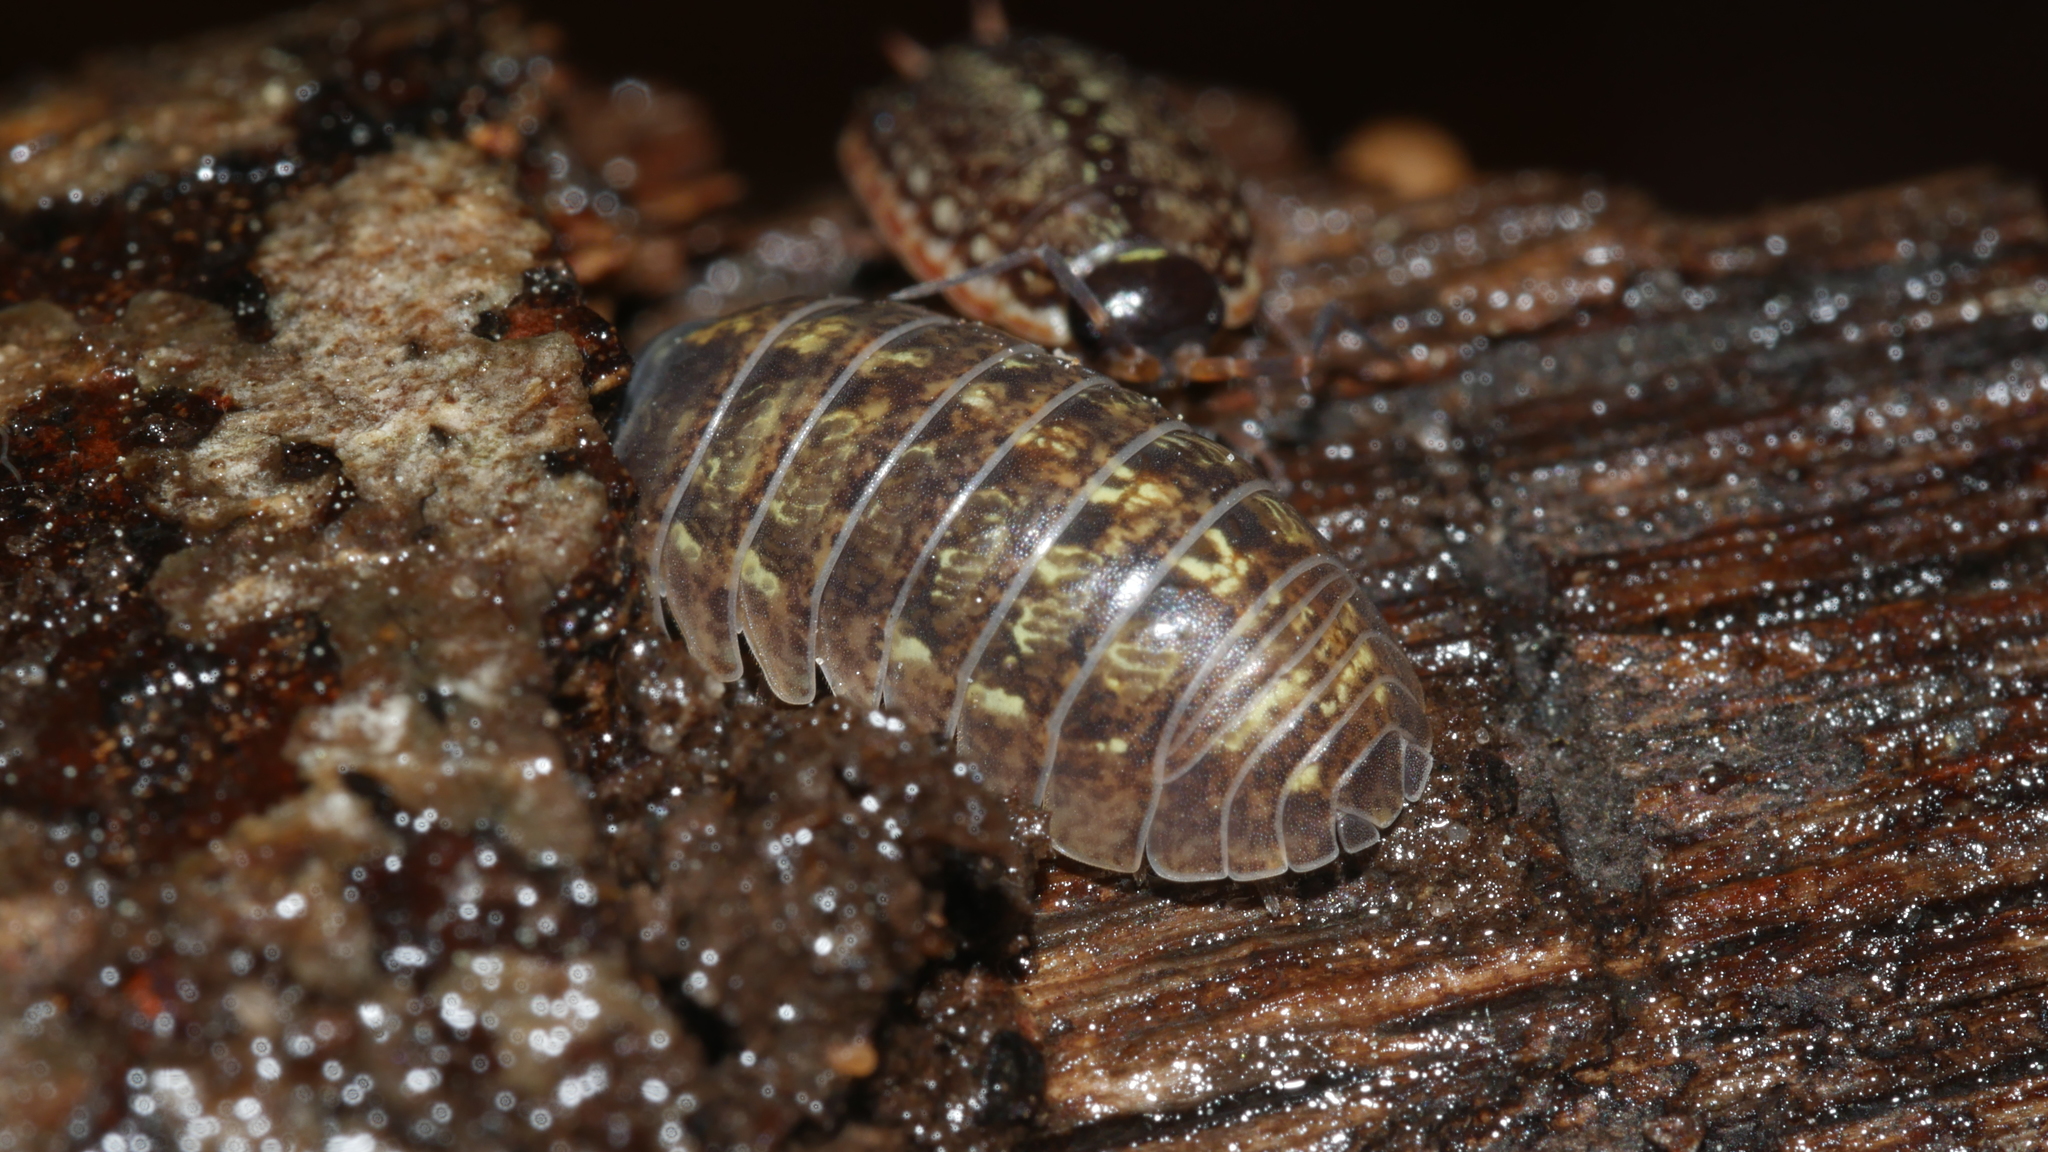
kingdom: Animalia
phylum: Arthropoda
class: Malacostraca
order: Isopoda
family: Armadillidiidae
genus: Armadillidium
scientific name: Armadillidium vulgare
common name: Common pill woodlouse
